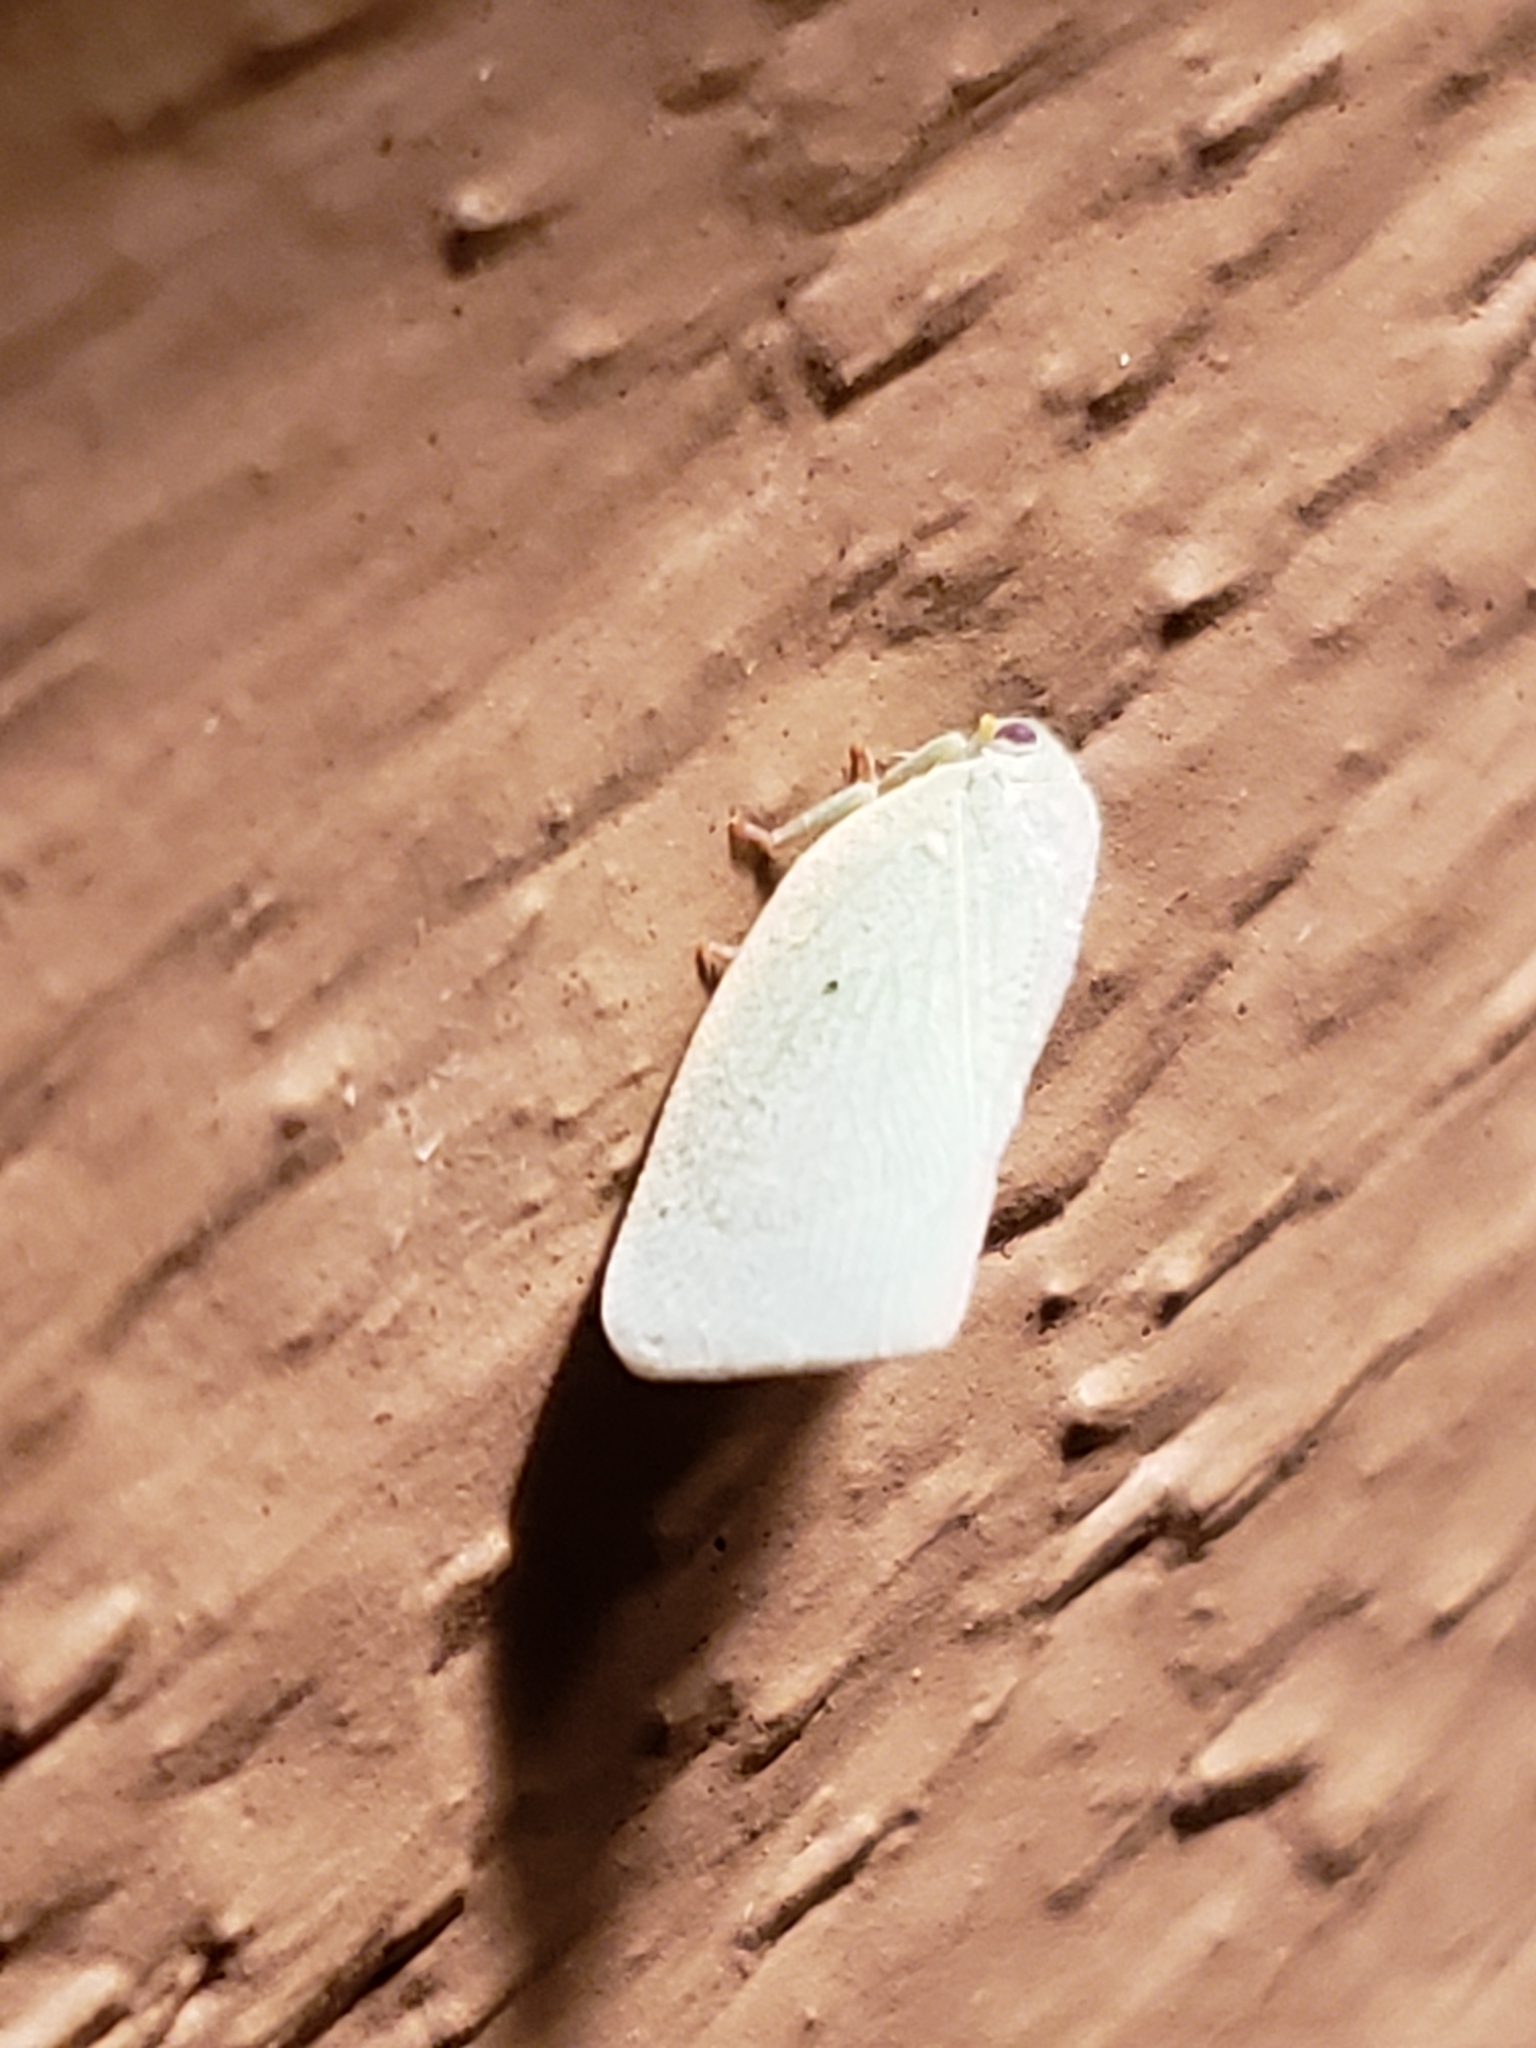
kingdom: Animalia
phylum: Arthropoda
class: Insecta
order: Hemiptera
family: Flatidae
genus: Flatormenis
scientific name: Flatormenis proxima
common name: Northern flatid planthopper
